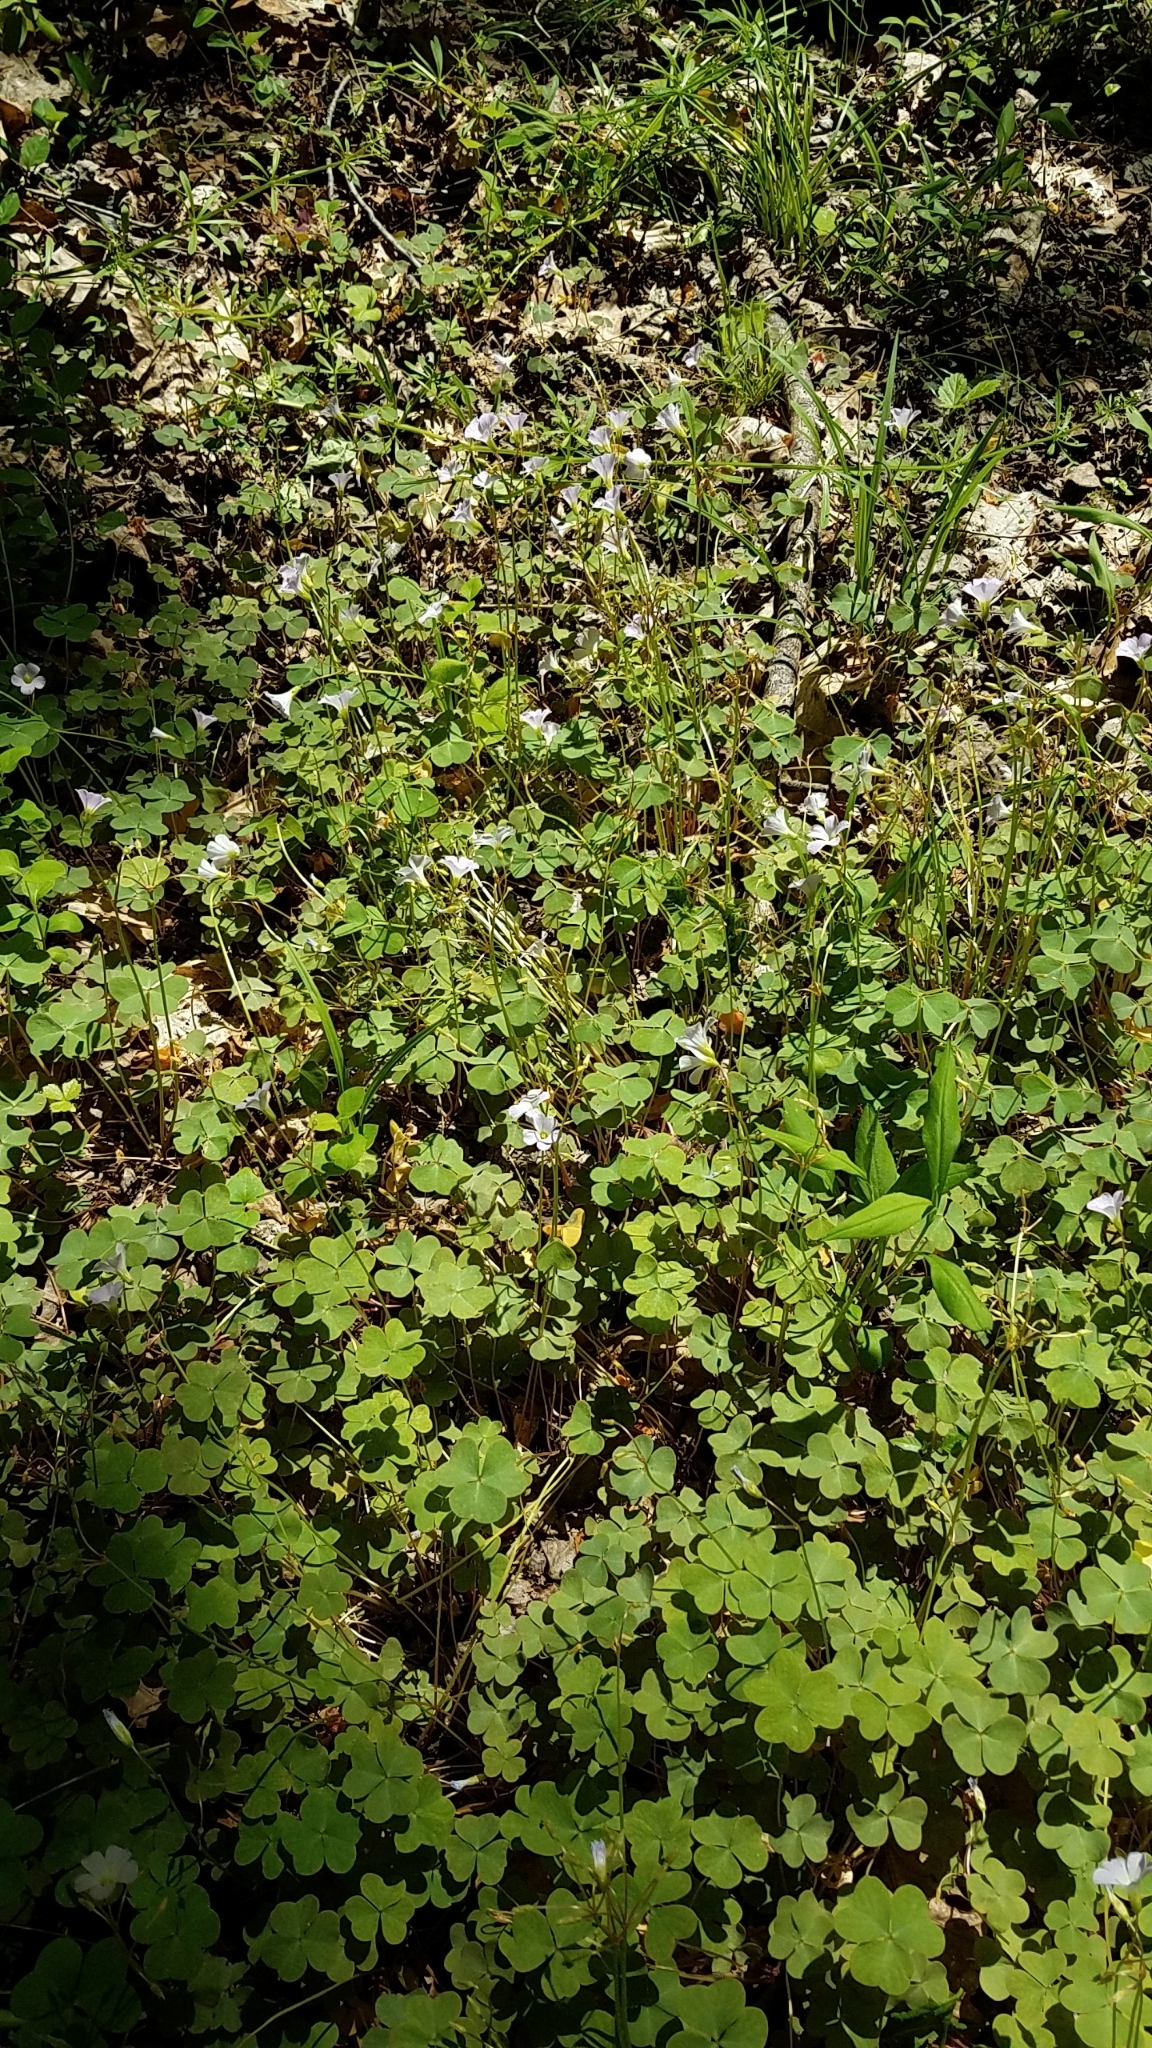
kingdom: Plantae
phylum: Tracheophyta
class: Magnoliopsida
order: Oxalidales
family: Oxalidaceae
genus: Oxalis
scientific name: Oxalis violacea
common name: Violet wood-sorrel
